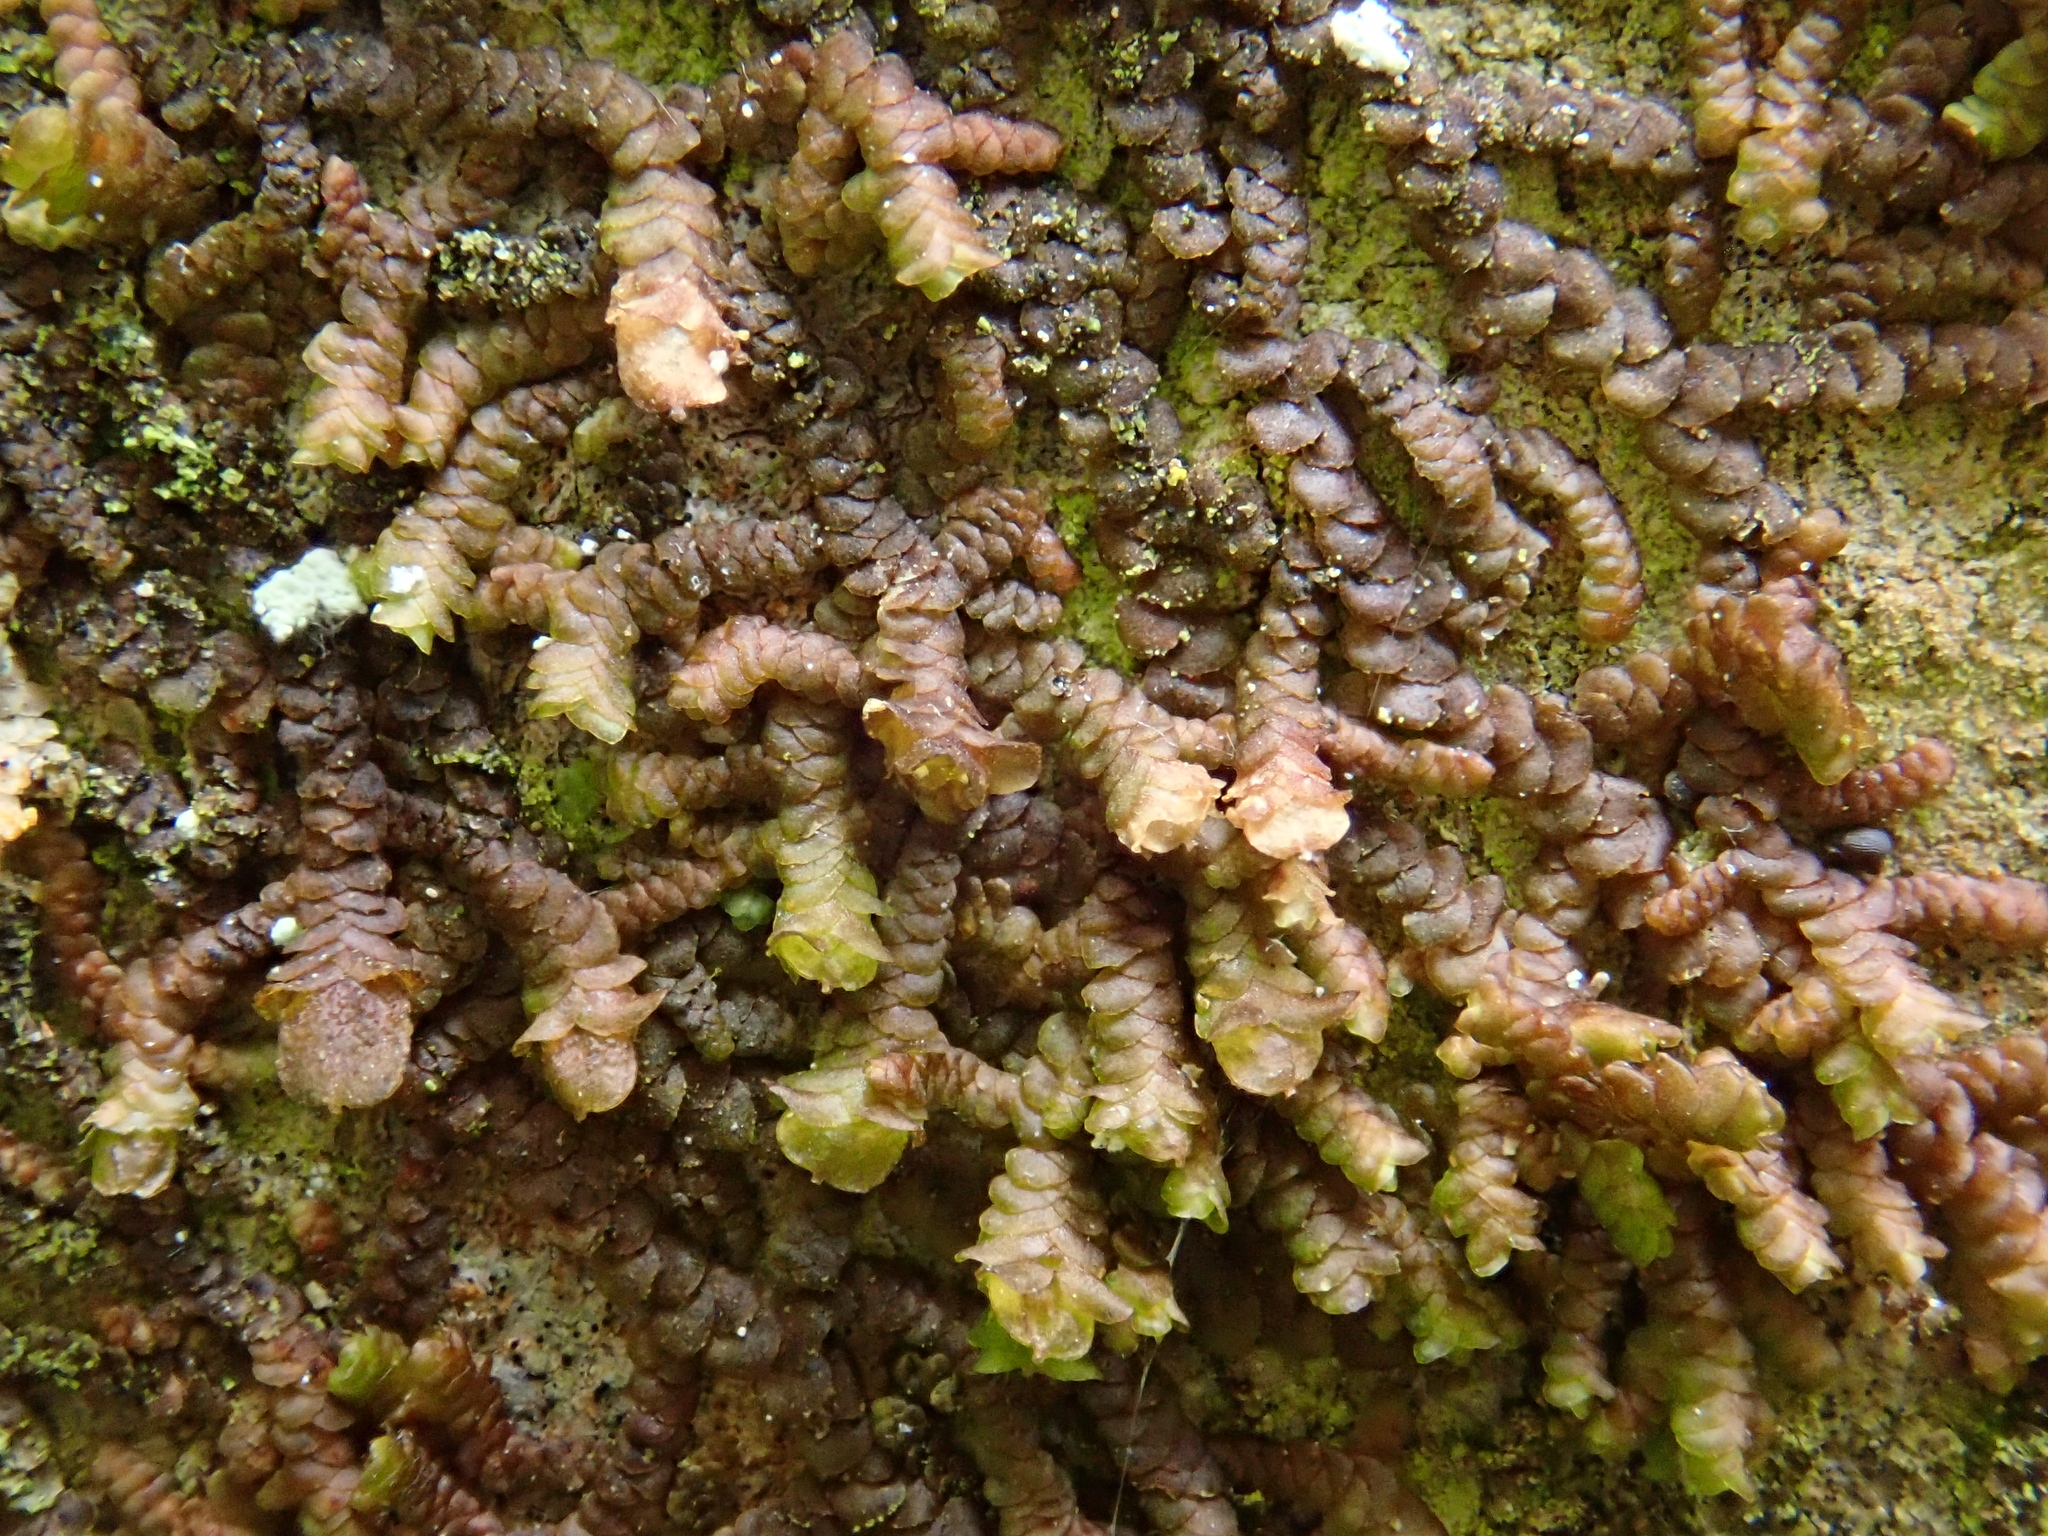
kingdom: Plantae
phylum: Marchantiophyta
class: Jungermanniopsida
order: Porellales
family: Frullaniaceae
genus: Frullania
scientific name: Frullania dilatata
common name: Dilated scalewort
